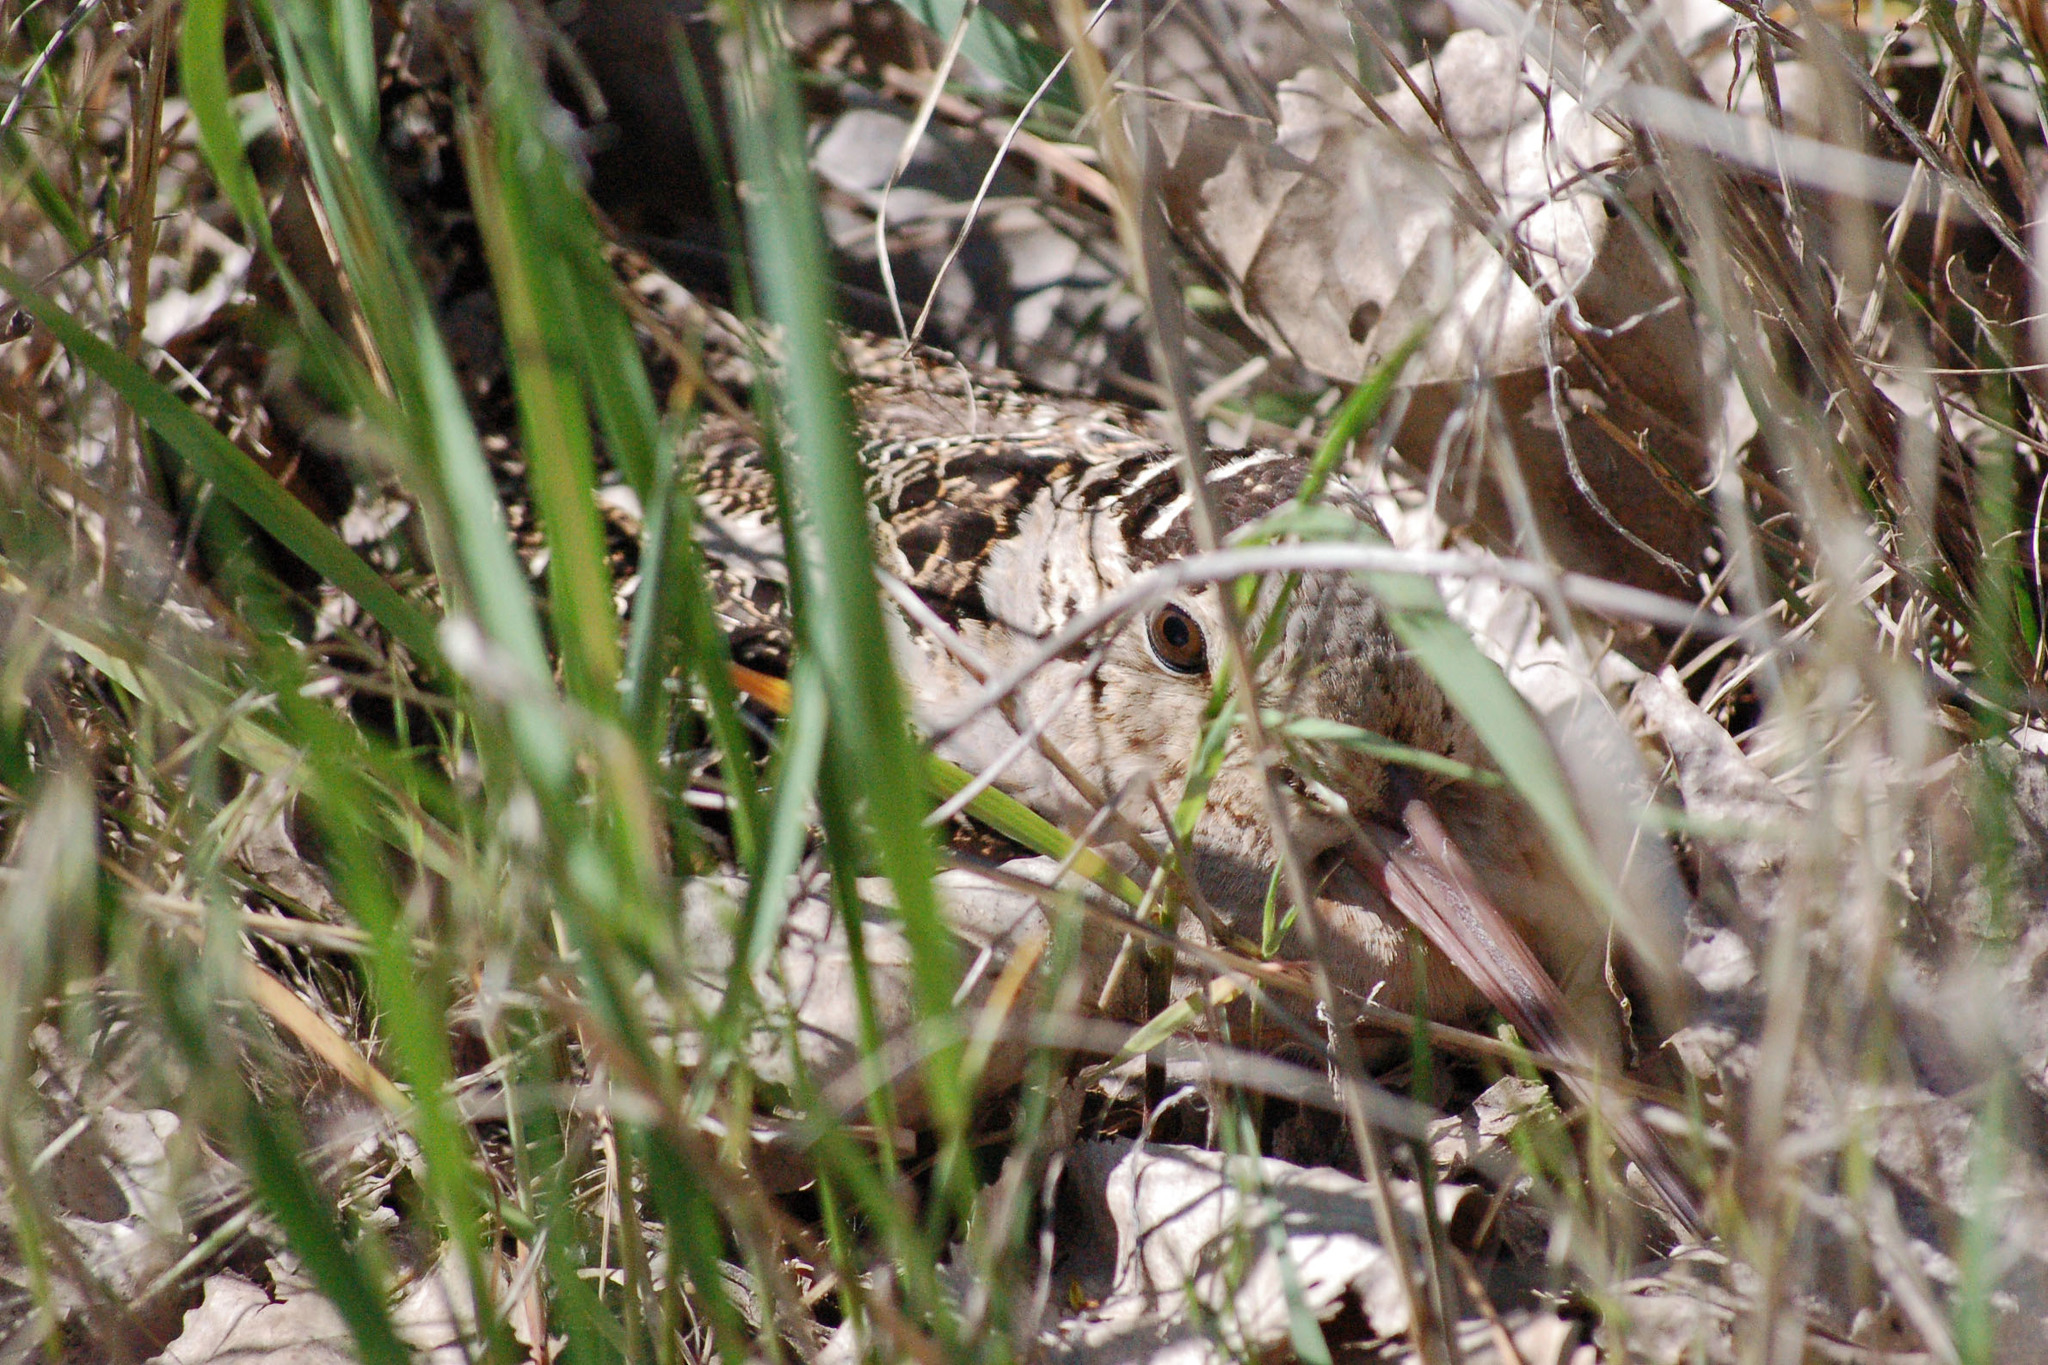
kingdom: Animalia
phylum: Chordata
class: Aves
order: Charadriiformes
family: Scolopacidae
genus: Scolopax
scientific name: Scolopax minor
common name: American woodcock
